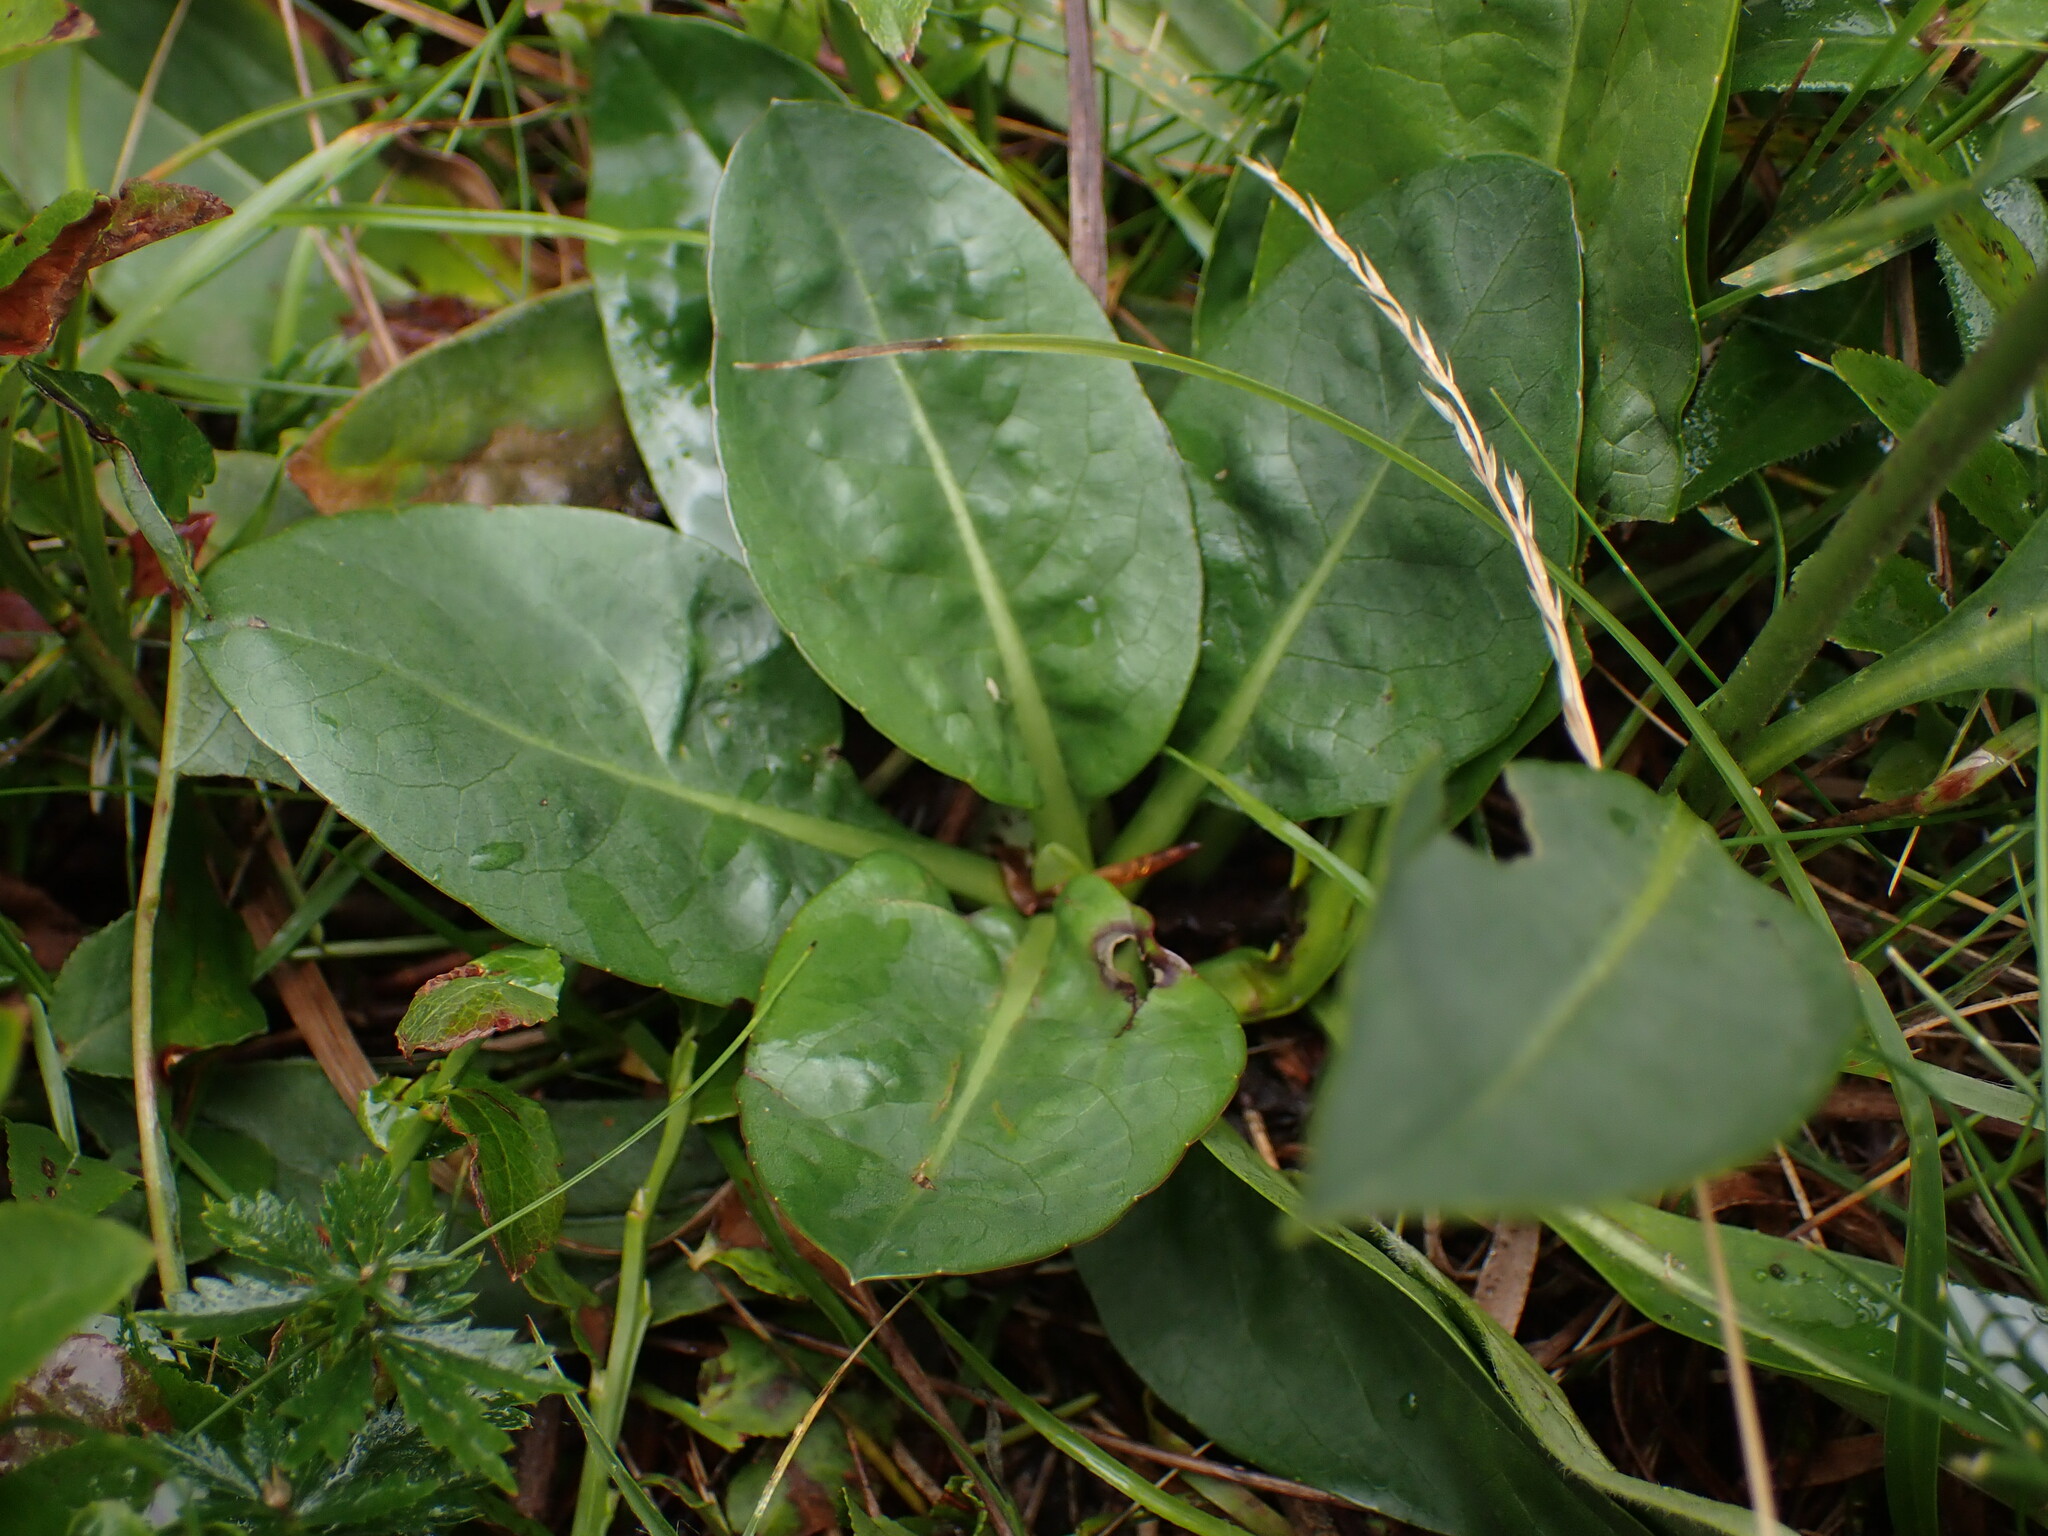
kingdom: Plantae
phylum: Tracheophyta
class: Magnoliopsida
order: Dipsacales
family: Caprifoliaceae
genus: Succisa
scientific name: Succisa pratensis
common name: Devil's-bit
